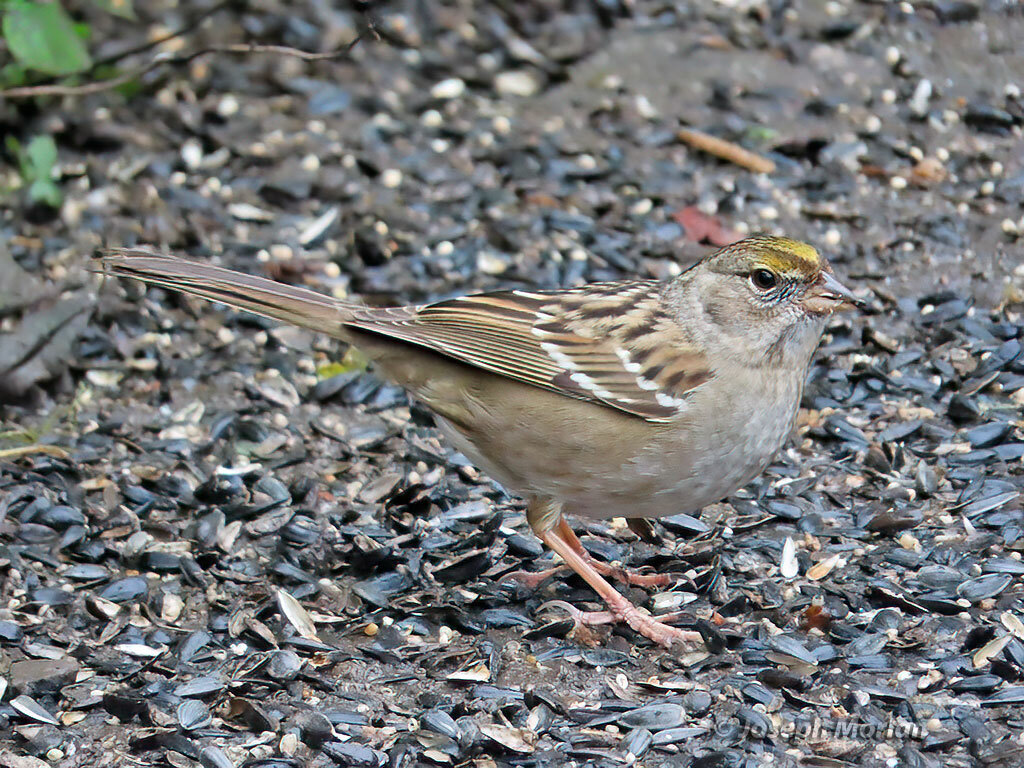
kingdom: Animalia
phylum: Chordata
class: Aves
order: Passeriformes
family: Passerellidae
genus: Zonotrichia
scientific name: Zonotrichia atricapilla
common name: Golden-crowned sparrow
